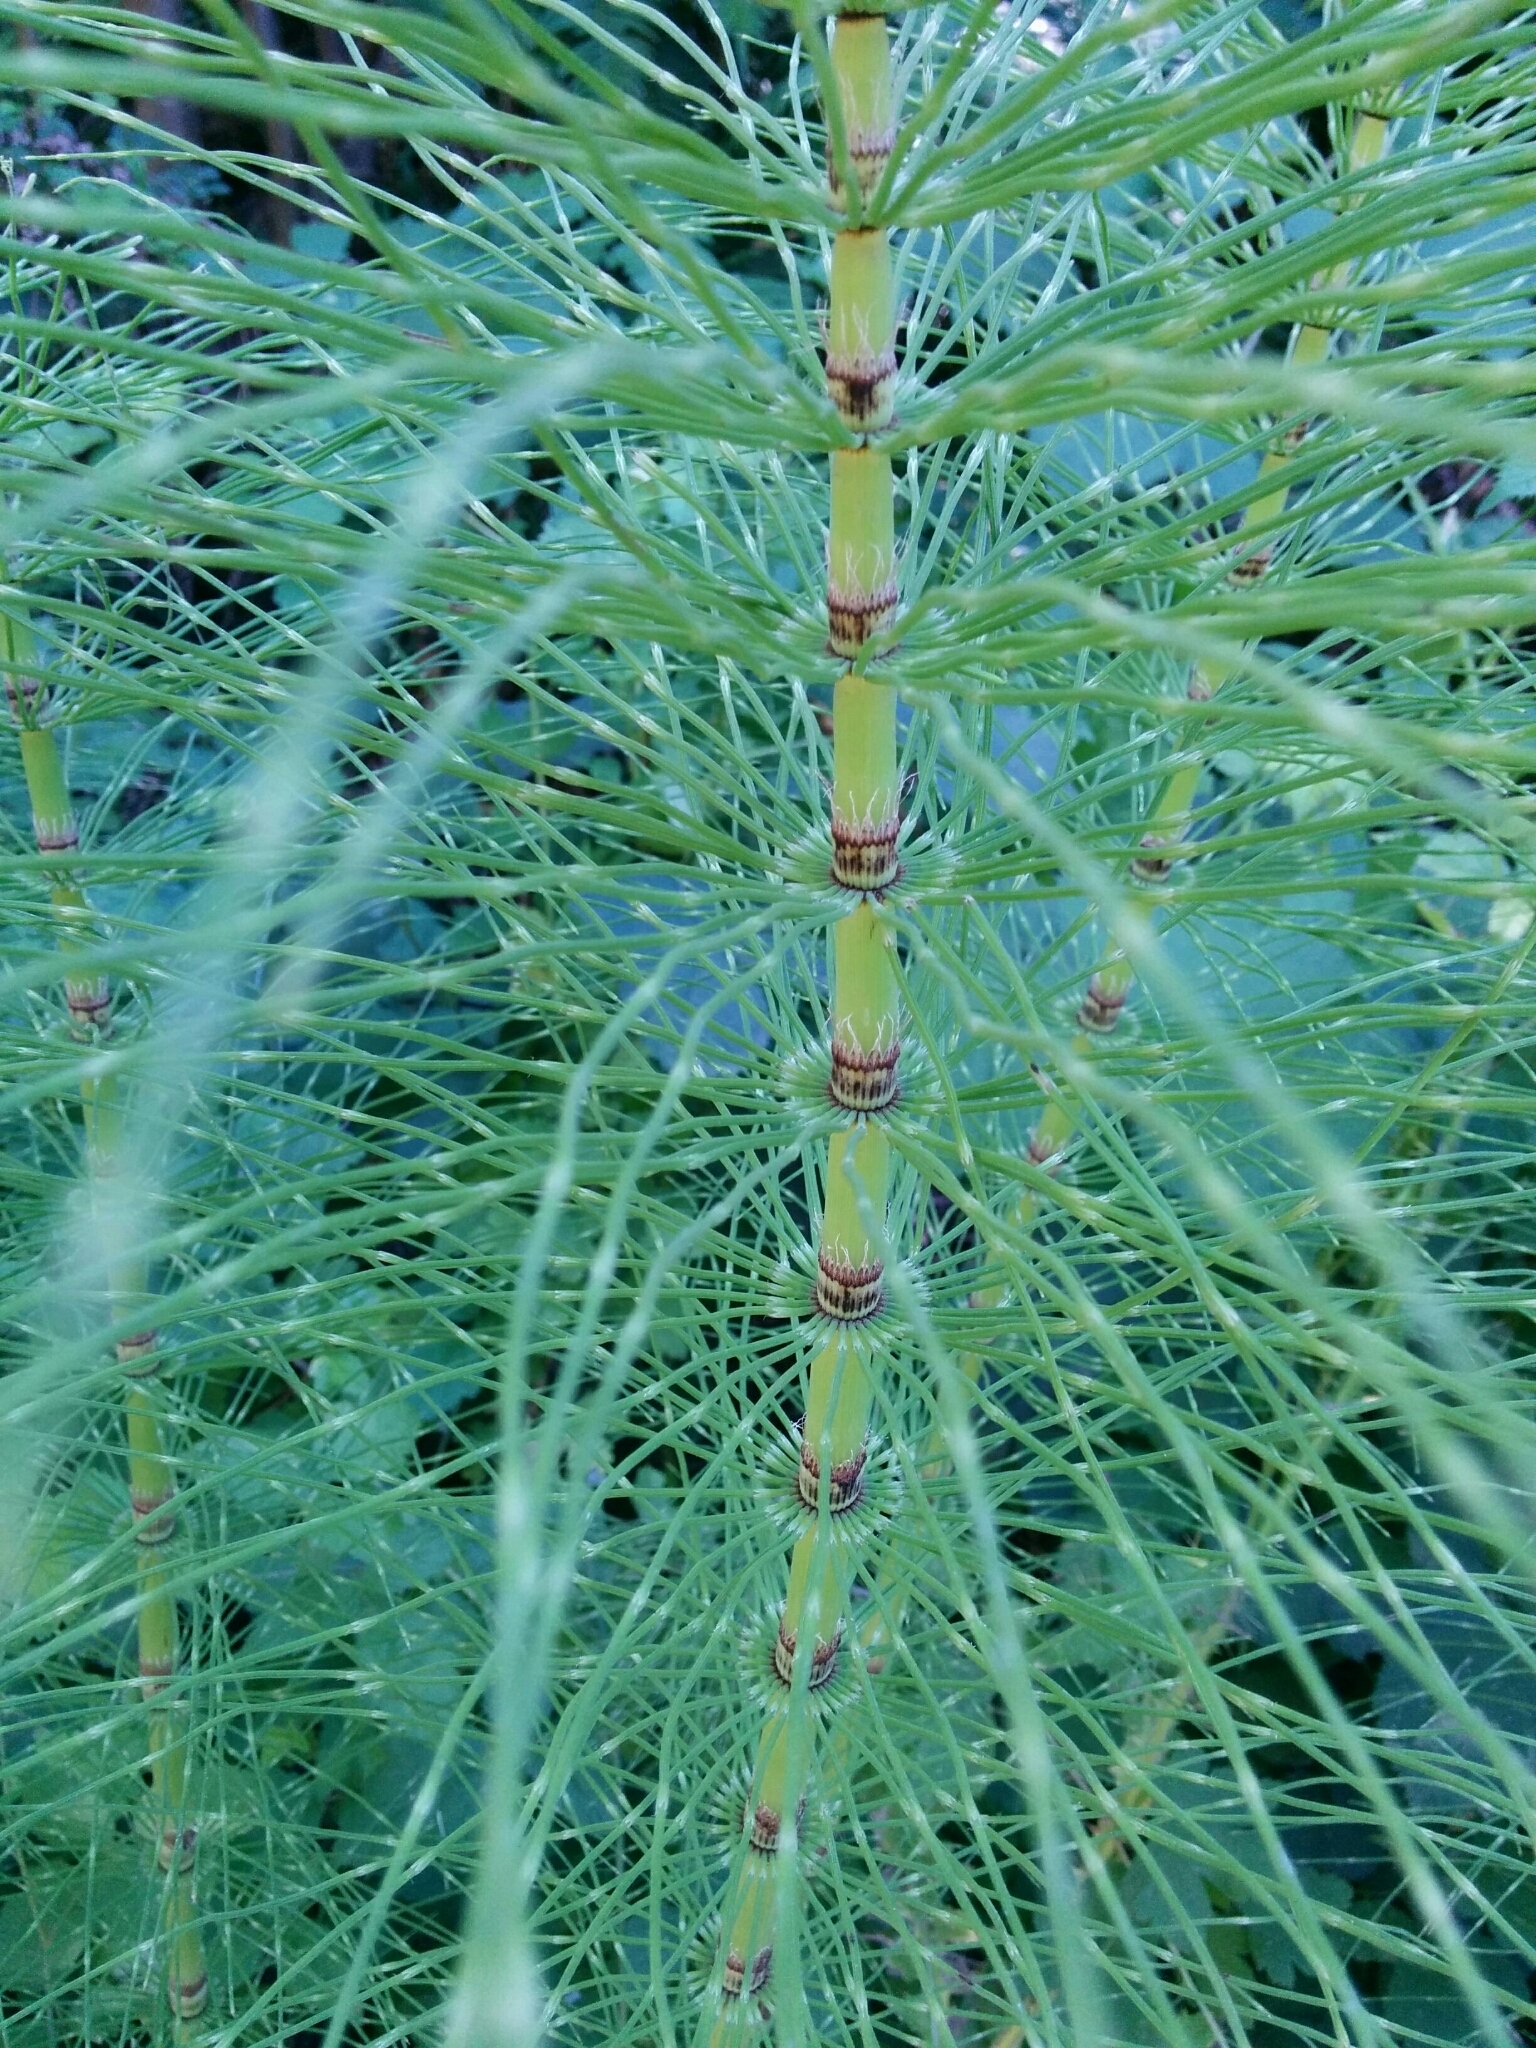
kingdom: Plantae
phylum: Tracheophyta
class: Polypodiopsida
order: Equisetales
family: Equisetaceae
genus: Equisetum
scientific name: Equisetum telmateia
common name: Great horsetail
